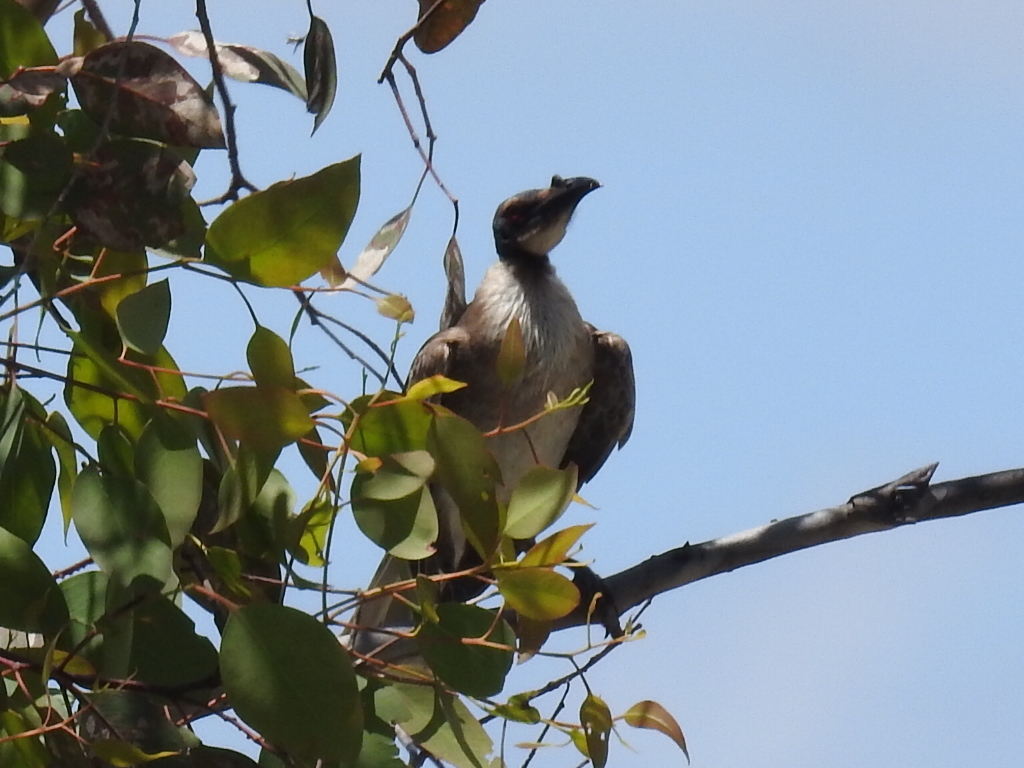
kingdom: Animalia
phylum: Chordata
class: Aves
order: Passeriformes
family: Meliphagidae
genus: Philemon
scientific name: Philemon corniculatus
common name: Noisy friarbird
